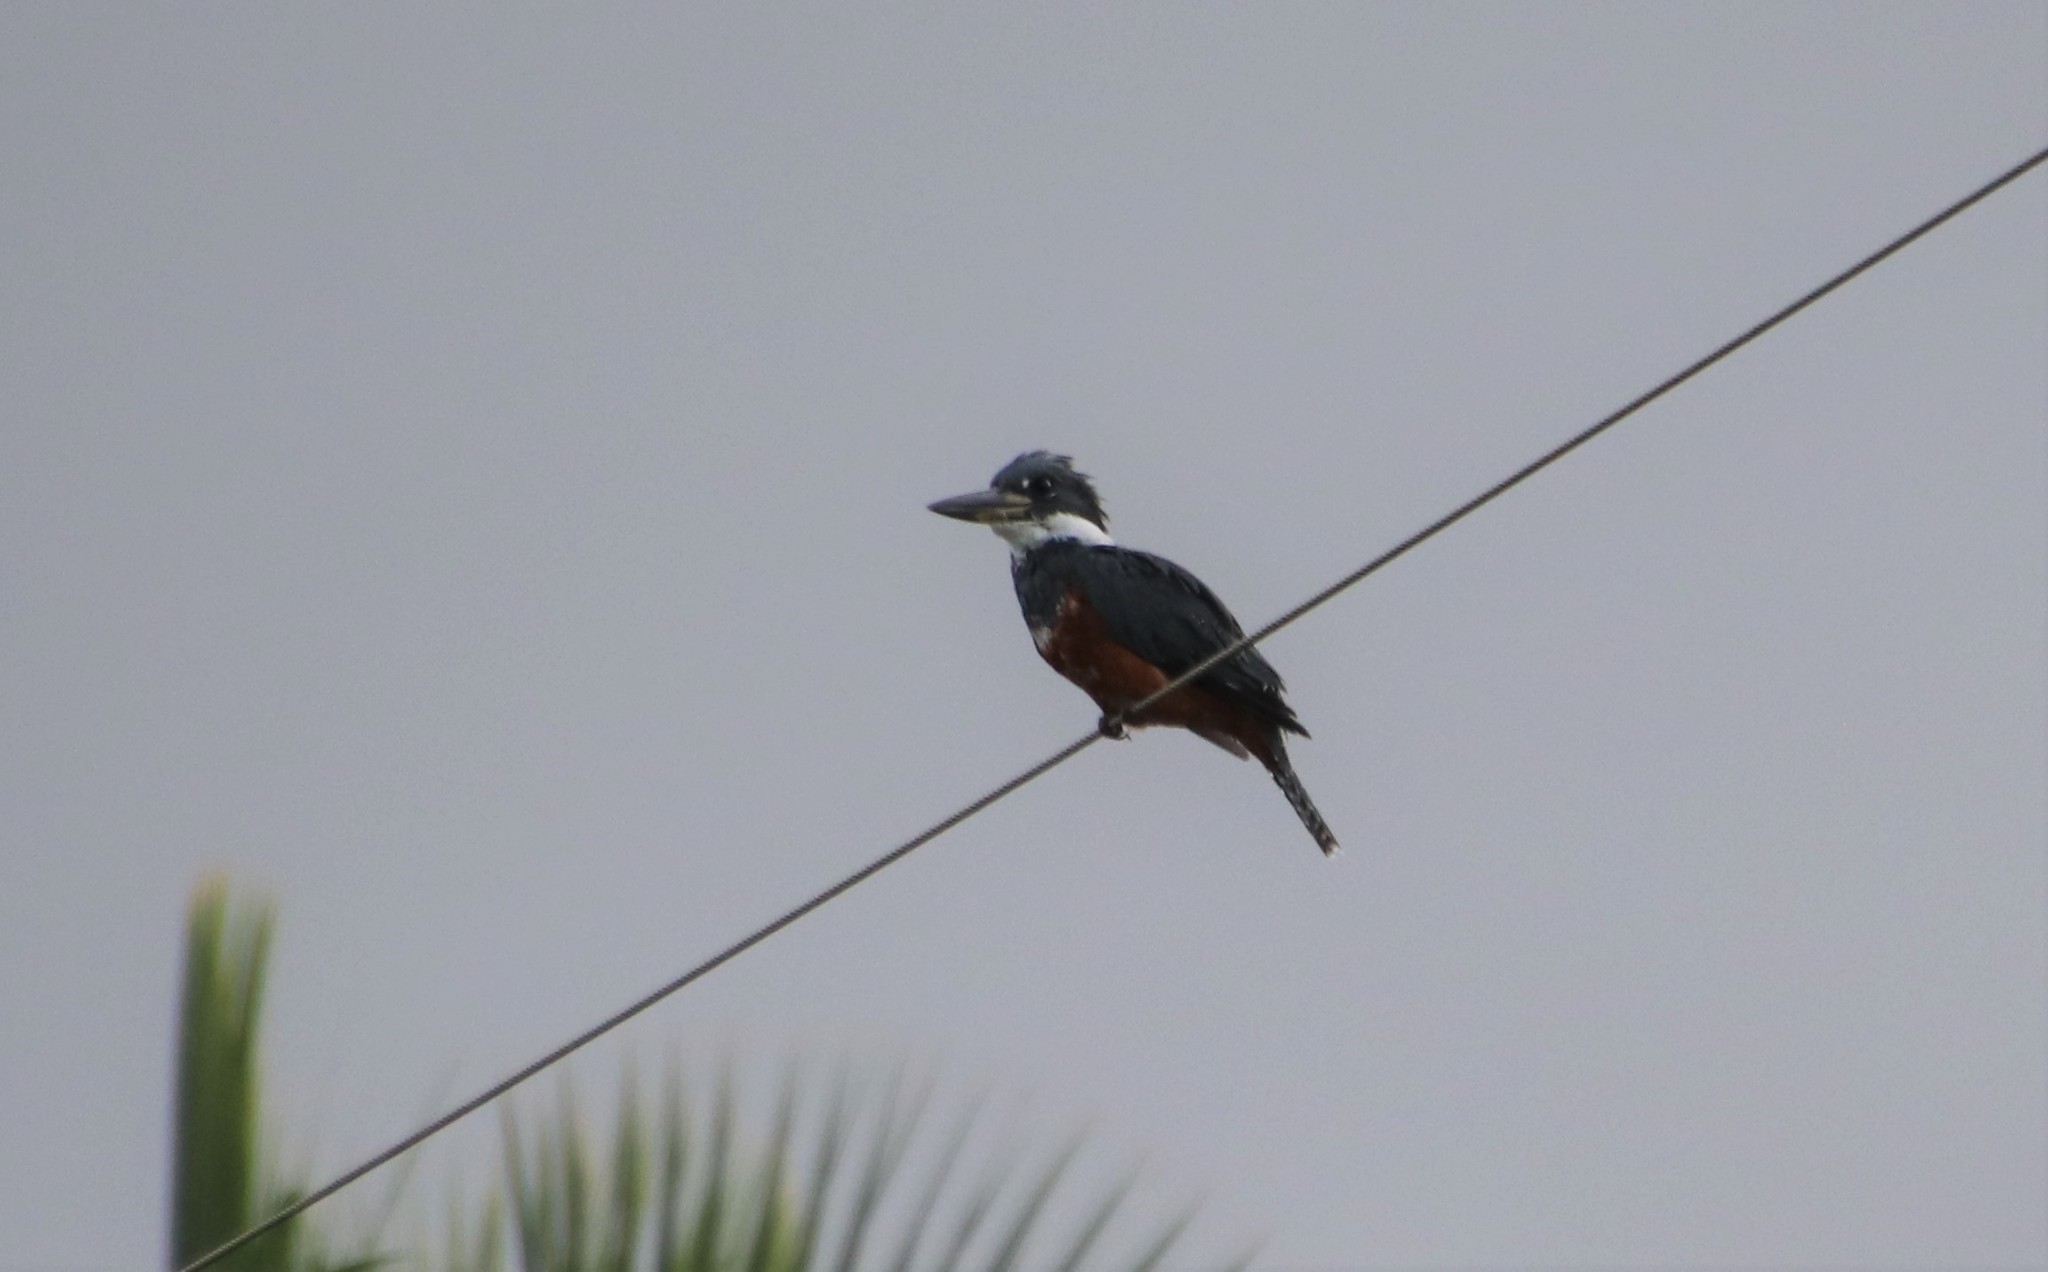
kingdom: Animalia
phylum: Chordata
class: Aves
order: Coraciiformes
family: Alcedinidae
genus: Megaceryle
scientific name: Megaceryle torquata
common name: Ringed kingfisher
